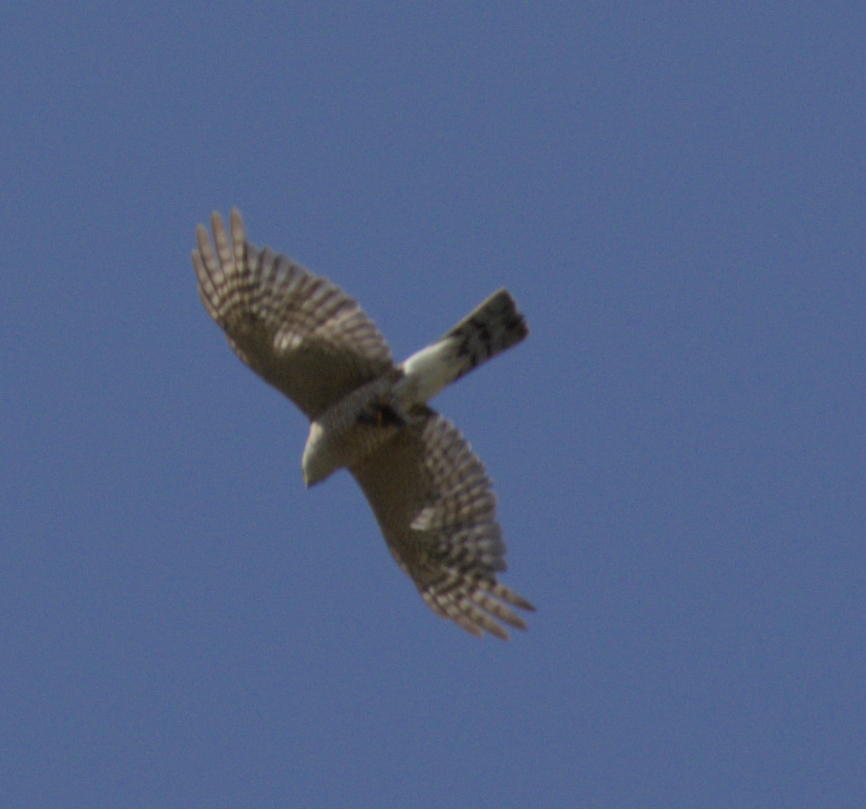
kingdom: Animalia
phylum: Chordata
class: Aves
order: Accipitriformes
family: Accipitridae
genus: Accipiter
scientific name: Accipiter striatus
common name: Sharp-shinned hawk
